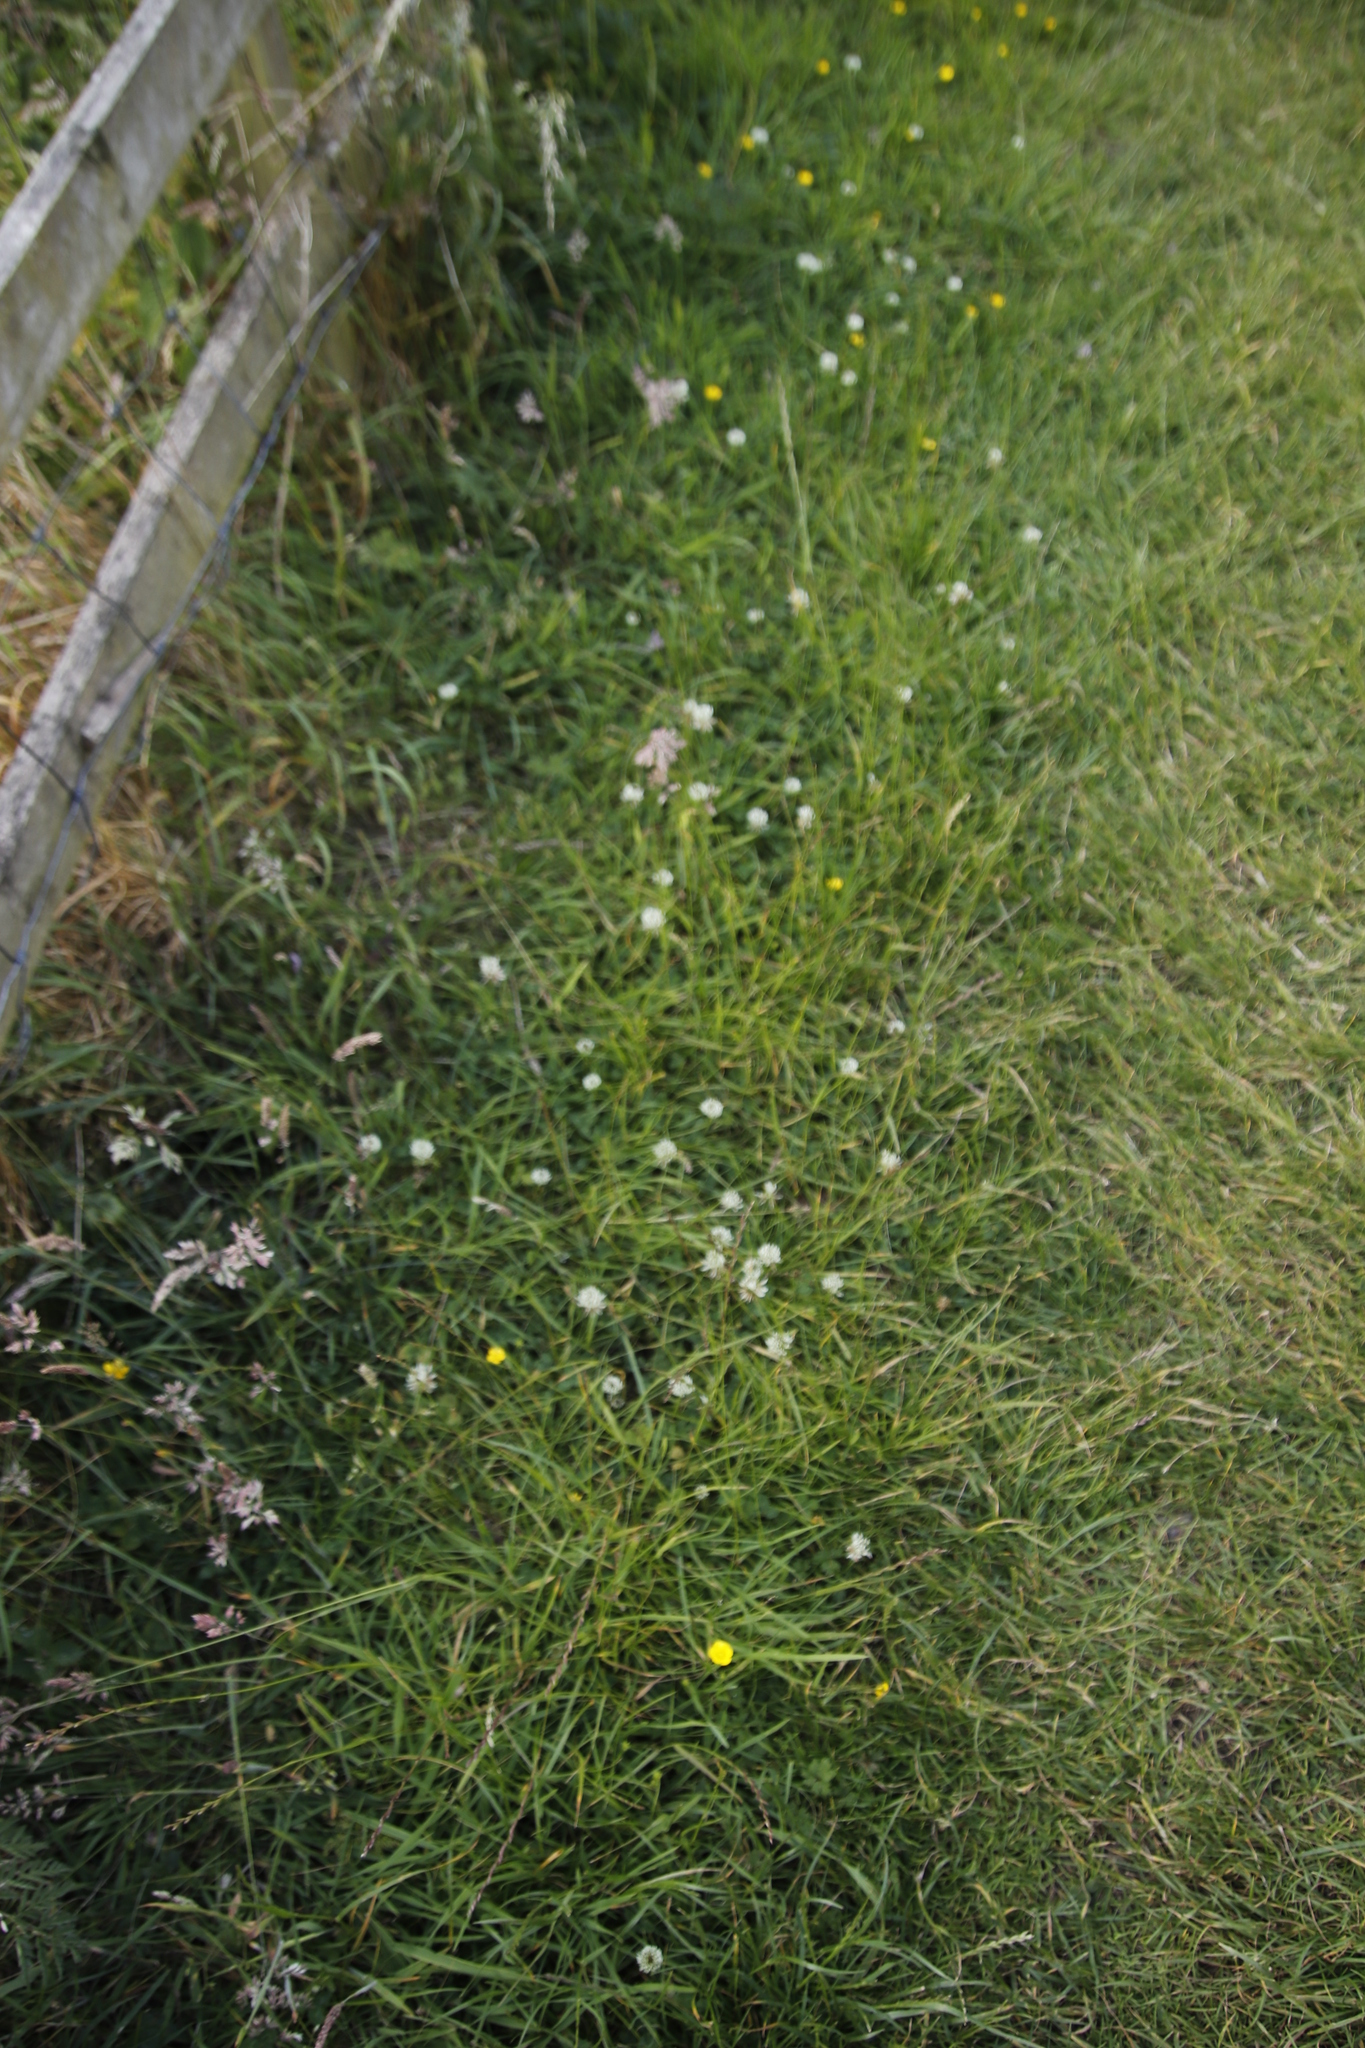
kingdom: Plantae
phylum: Tracheophyta
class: Magnoliopsida
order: Fabales
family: Fabaceae
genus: Trifolium
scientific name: Trifolium repens
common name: White clover
